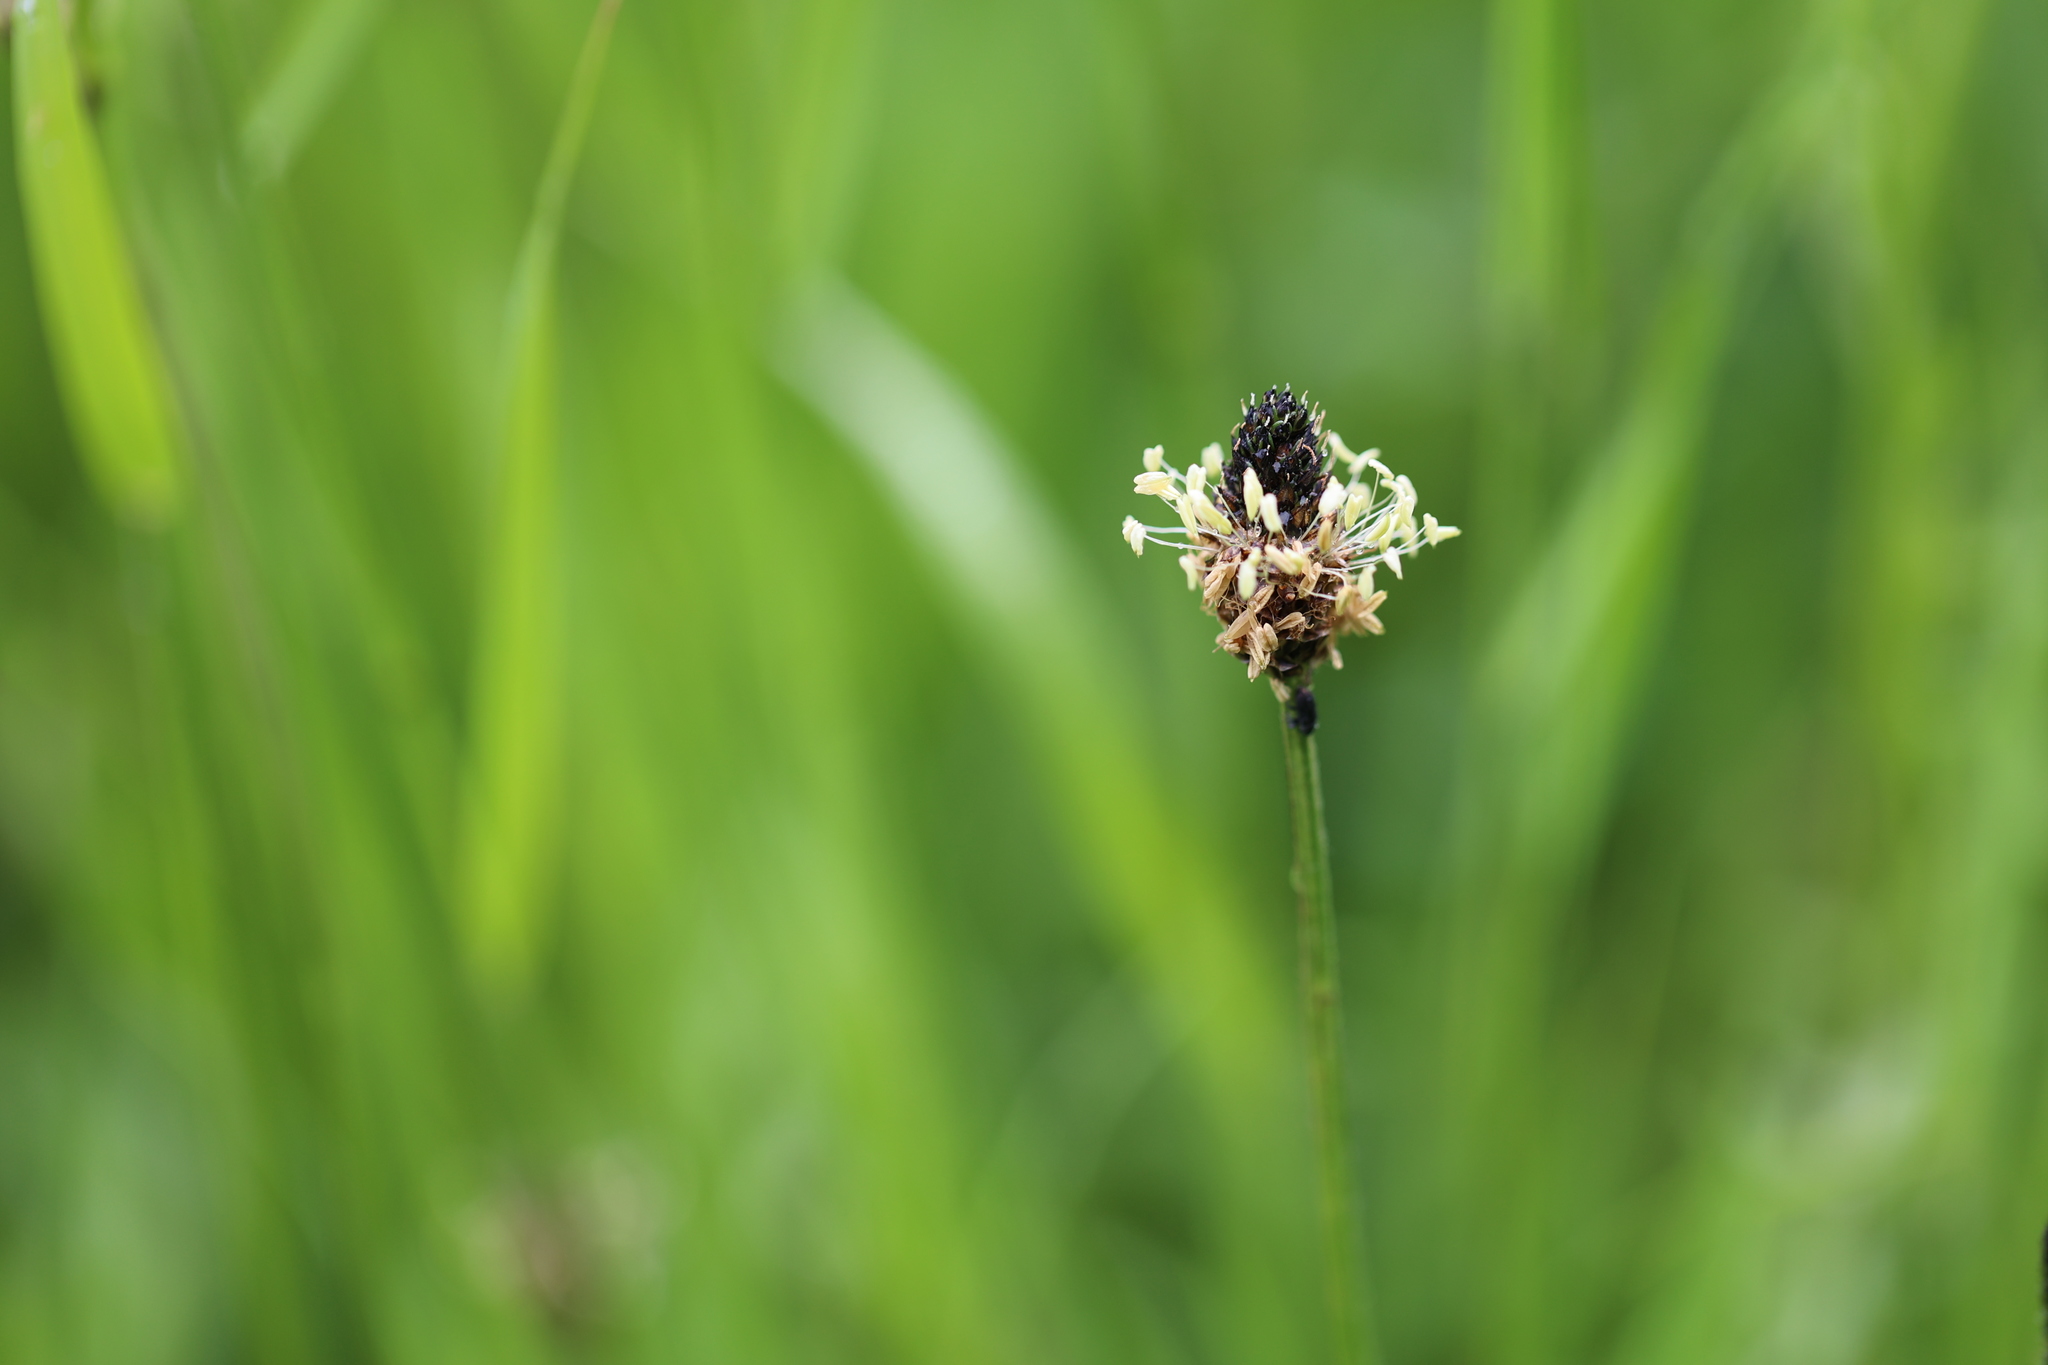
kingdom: Plantae
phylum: Tracheophyta
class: Magnoliopsida
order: Lamiales
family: Plantaginaceae
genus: Plantago
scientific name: Plantago lanceolata
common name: Ribwort plantain
